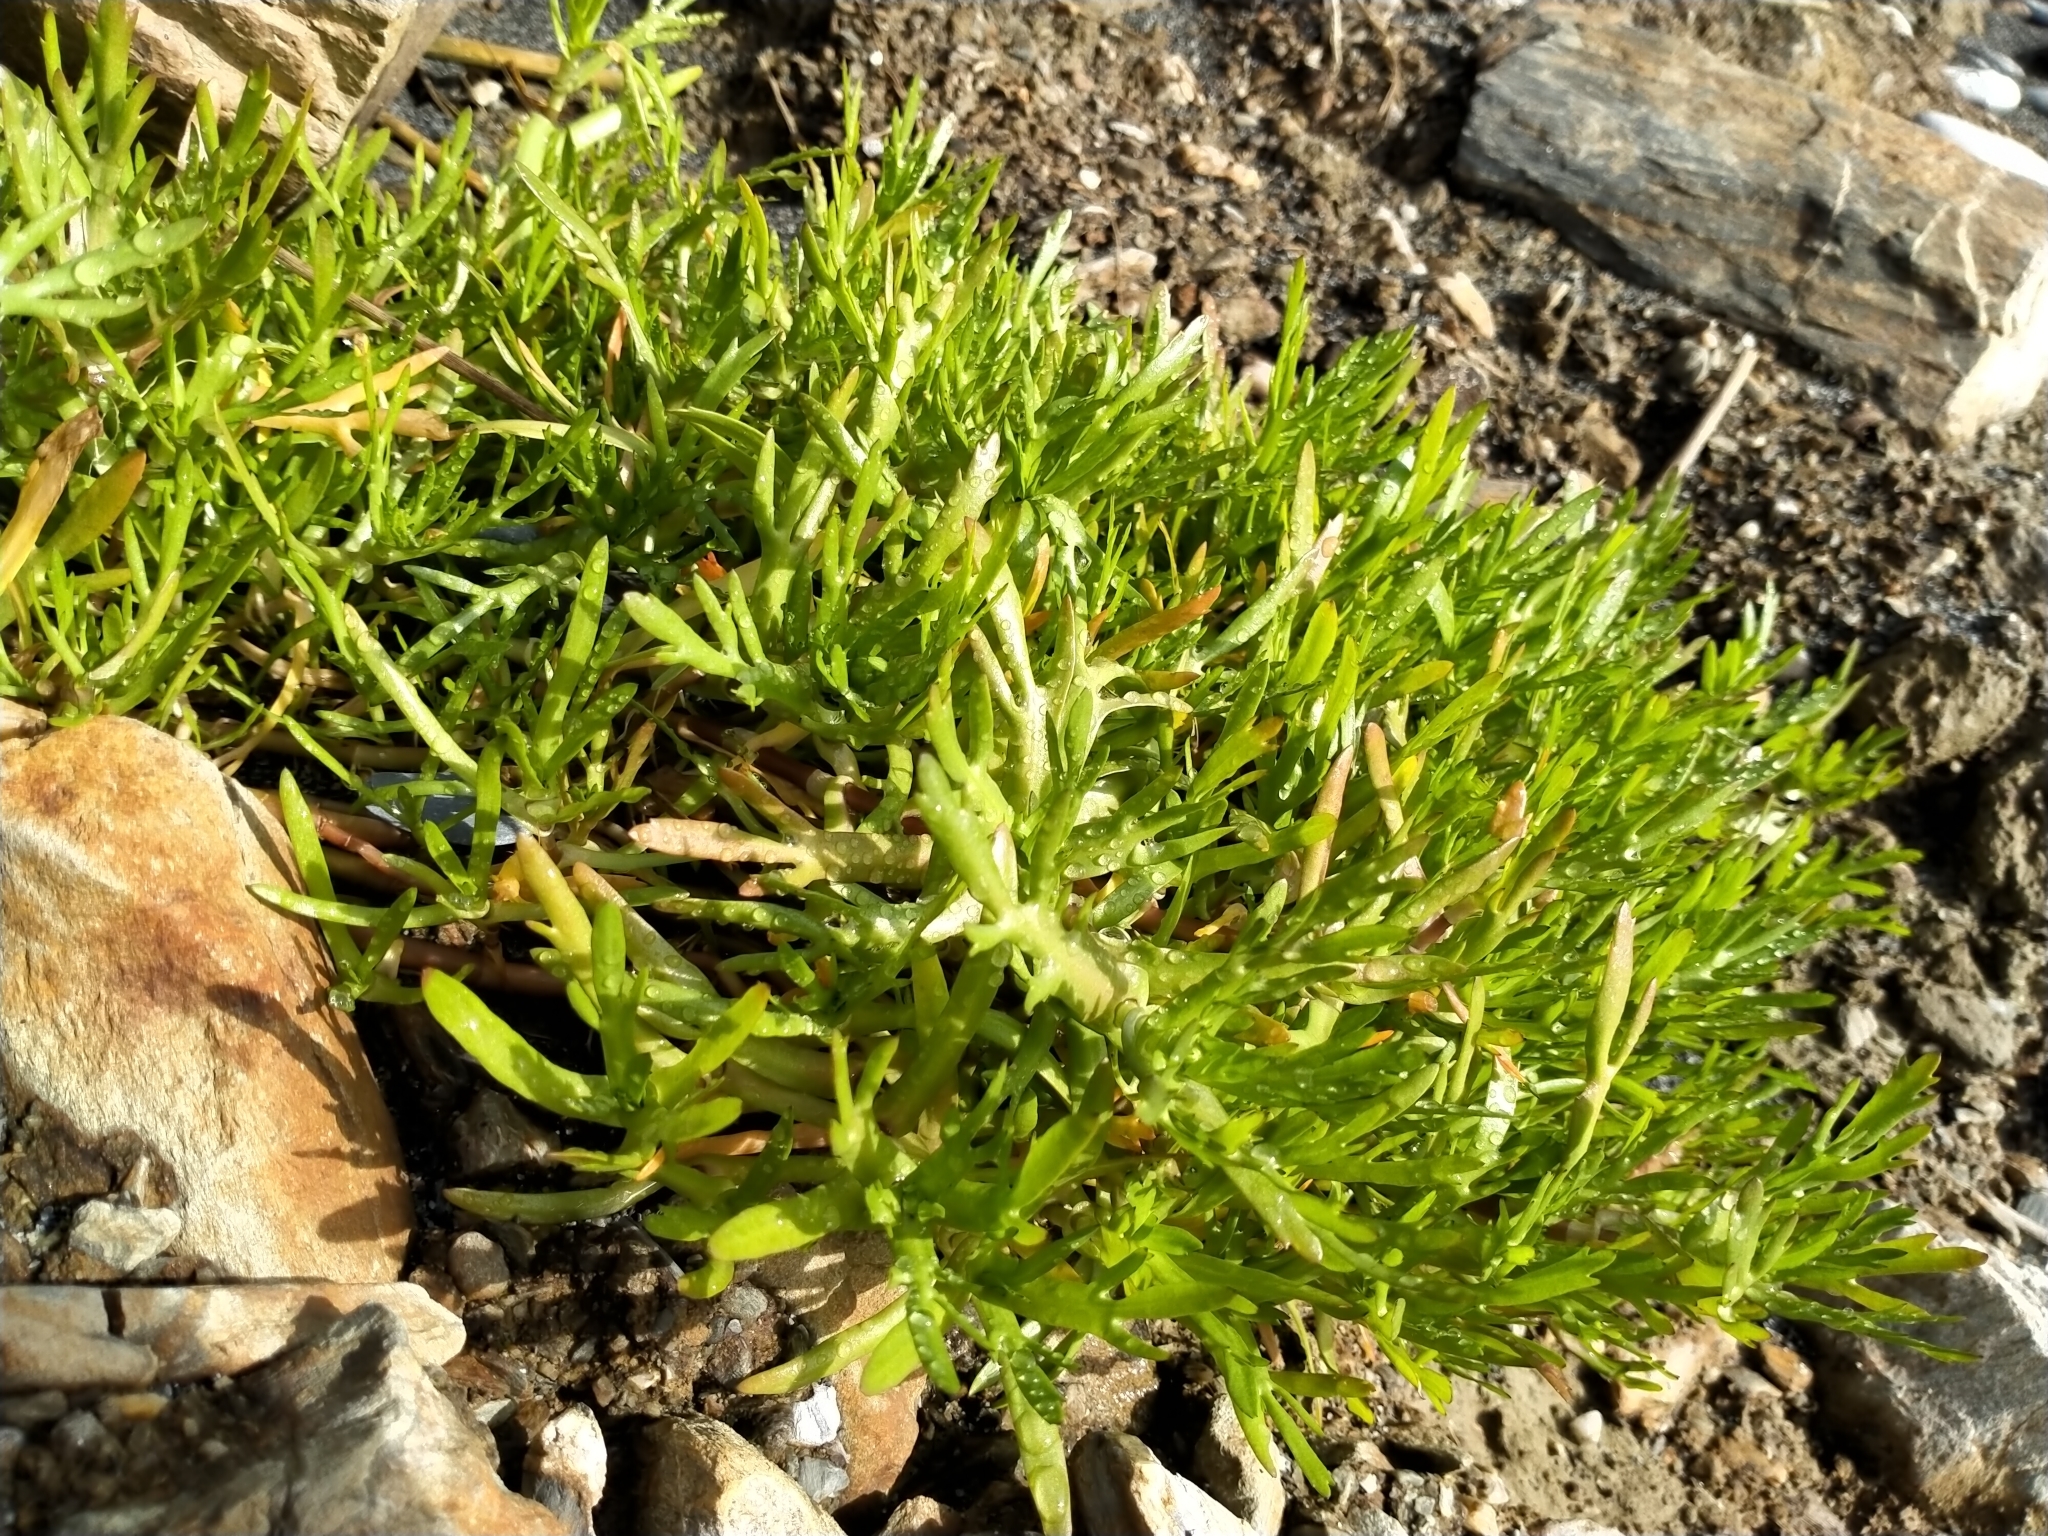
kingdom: Plantae
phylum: Tracheophyta
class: Magnoliopsida
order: Asterales
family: Asteraceae
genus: Cotula
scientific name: Cotula coronopifolia
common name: Buttonweed
